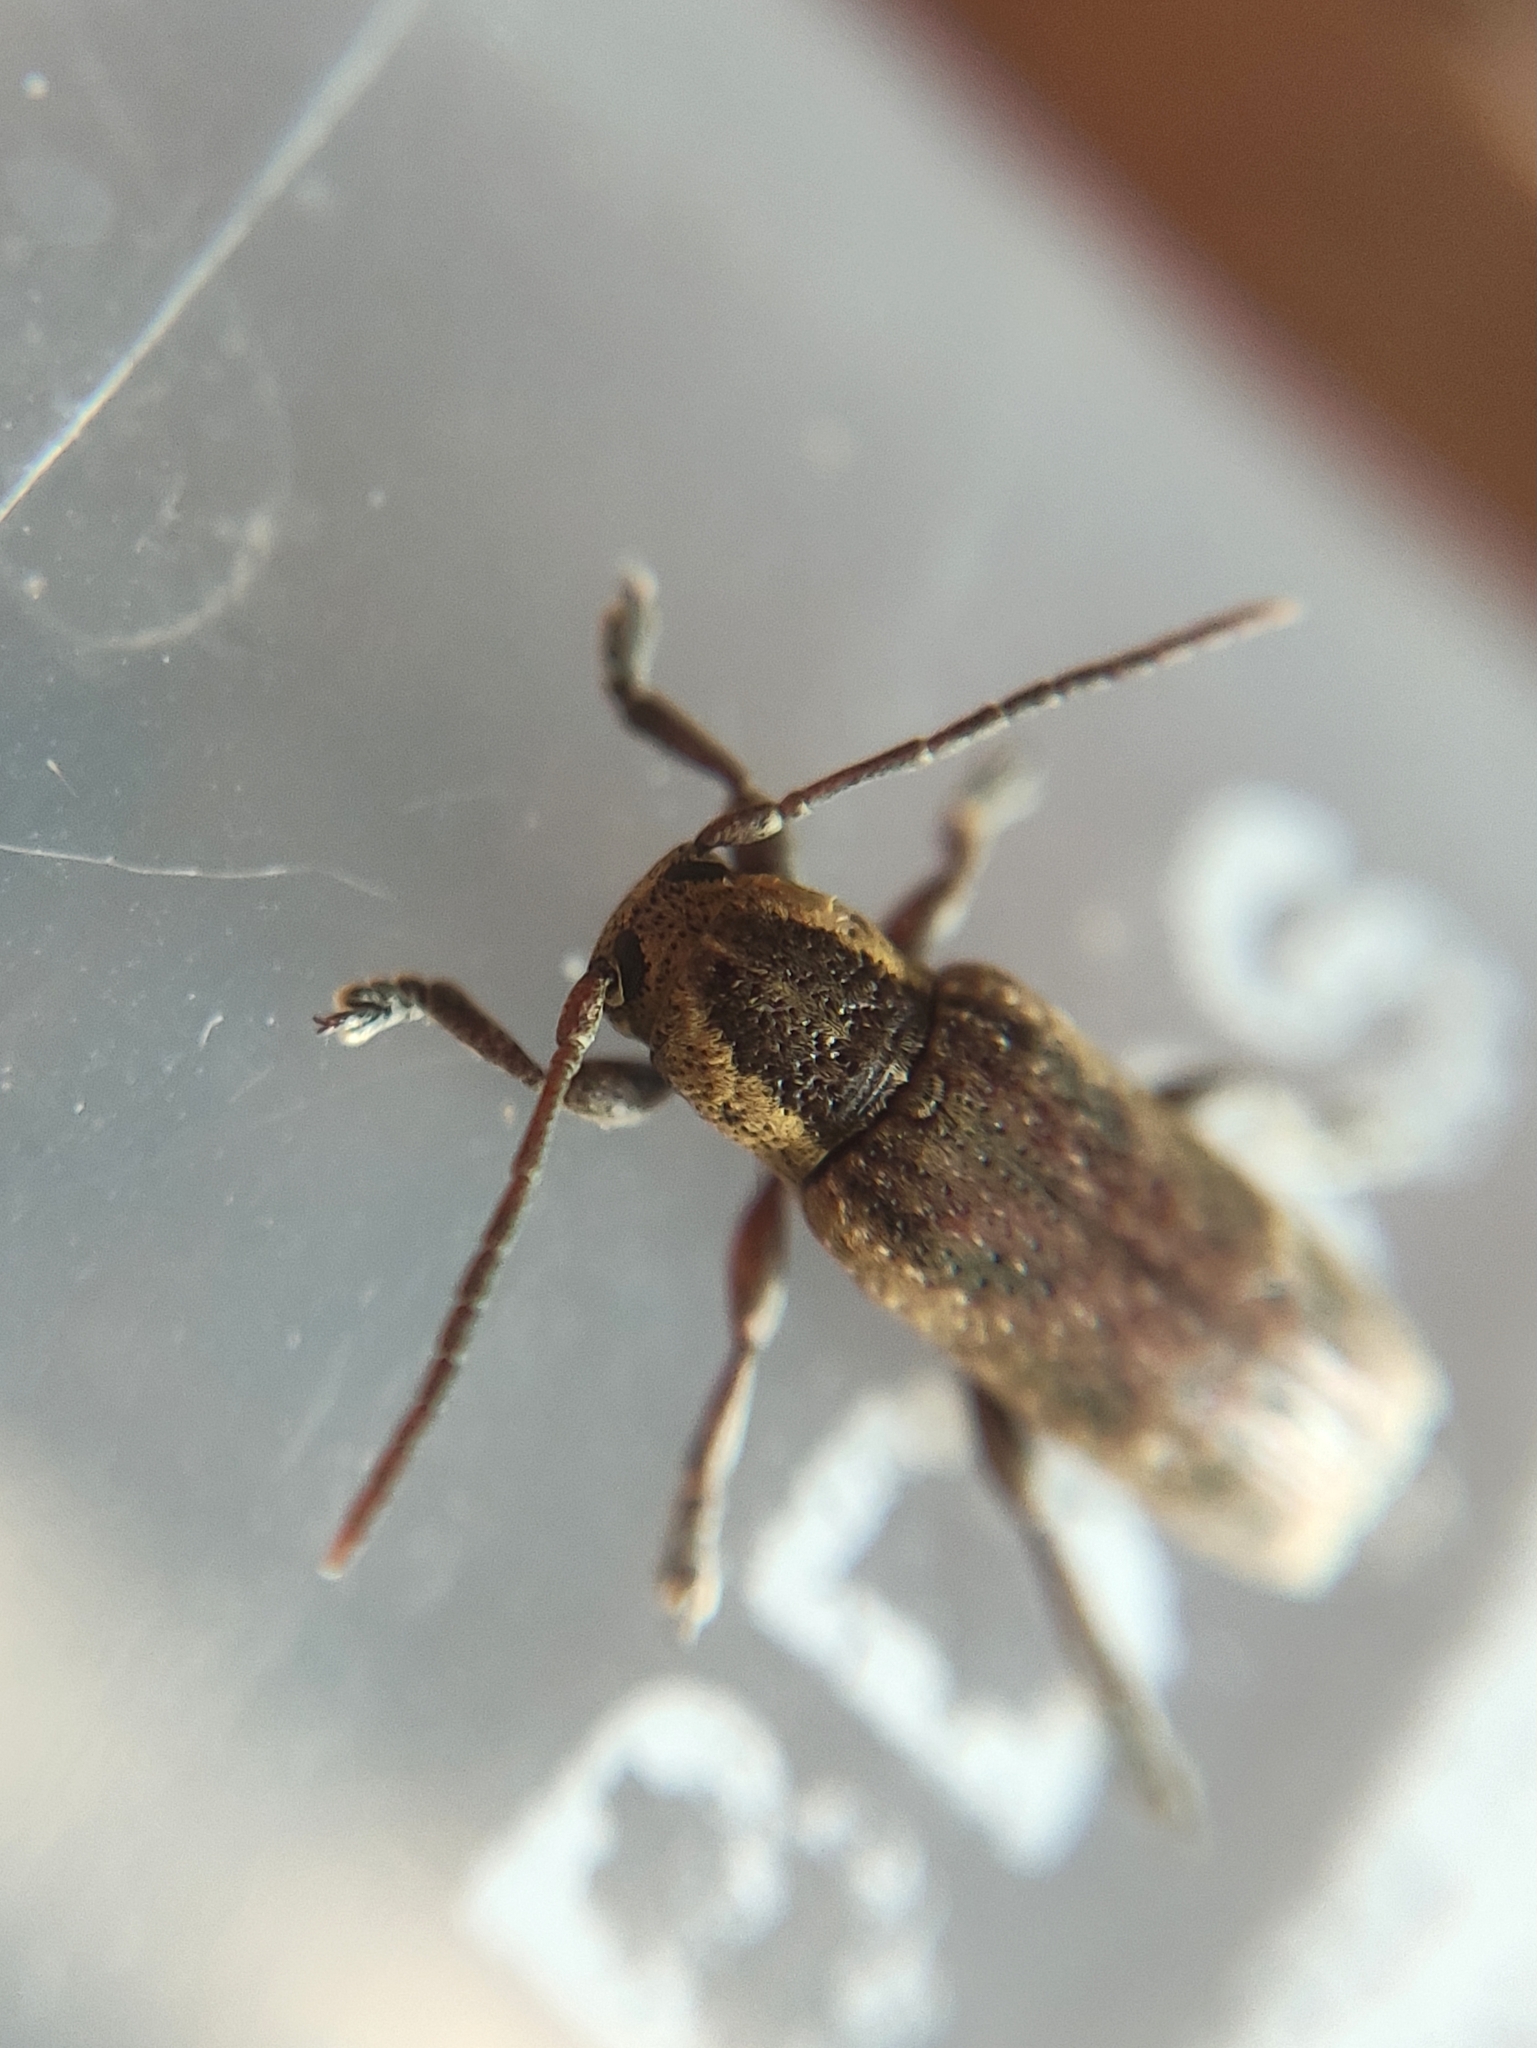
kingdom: Animalia
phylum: Arthropoda
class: Insecta
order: Coleoptera
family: Cerambycidae
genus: Adetus
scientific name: Adetus analis
